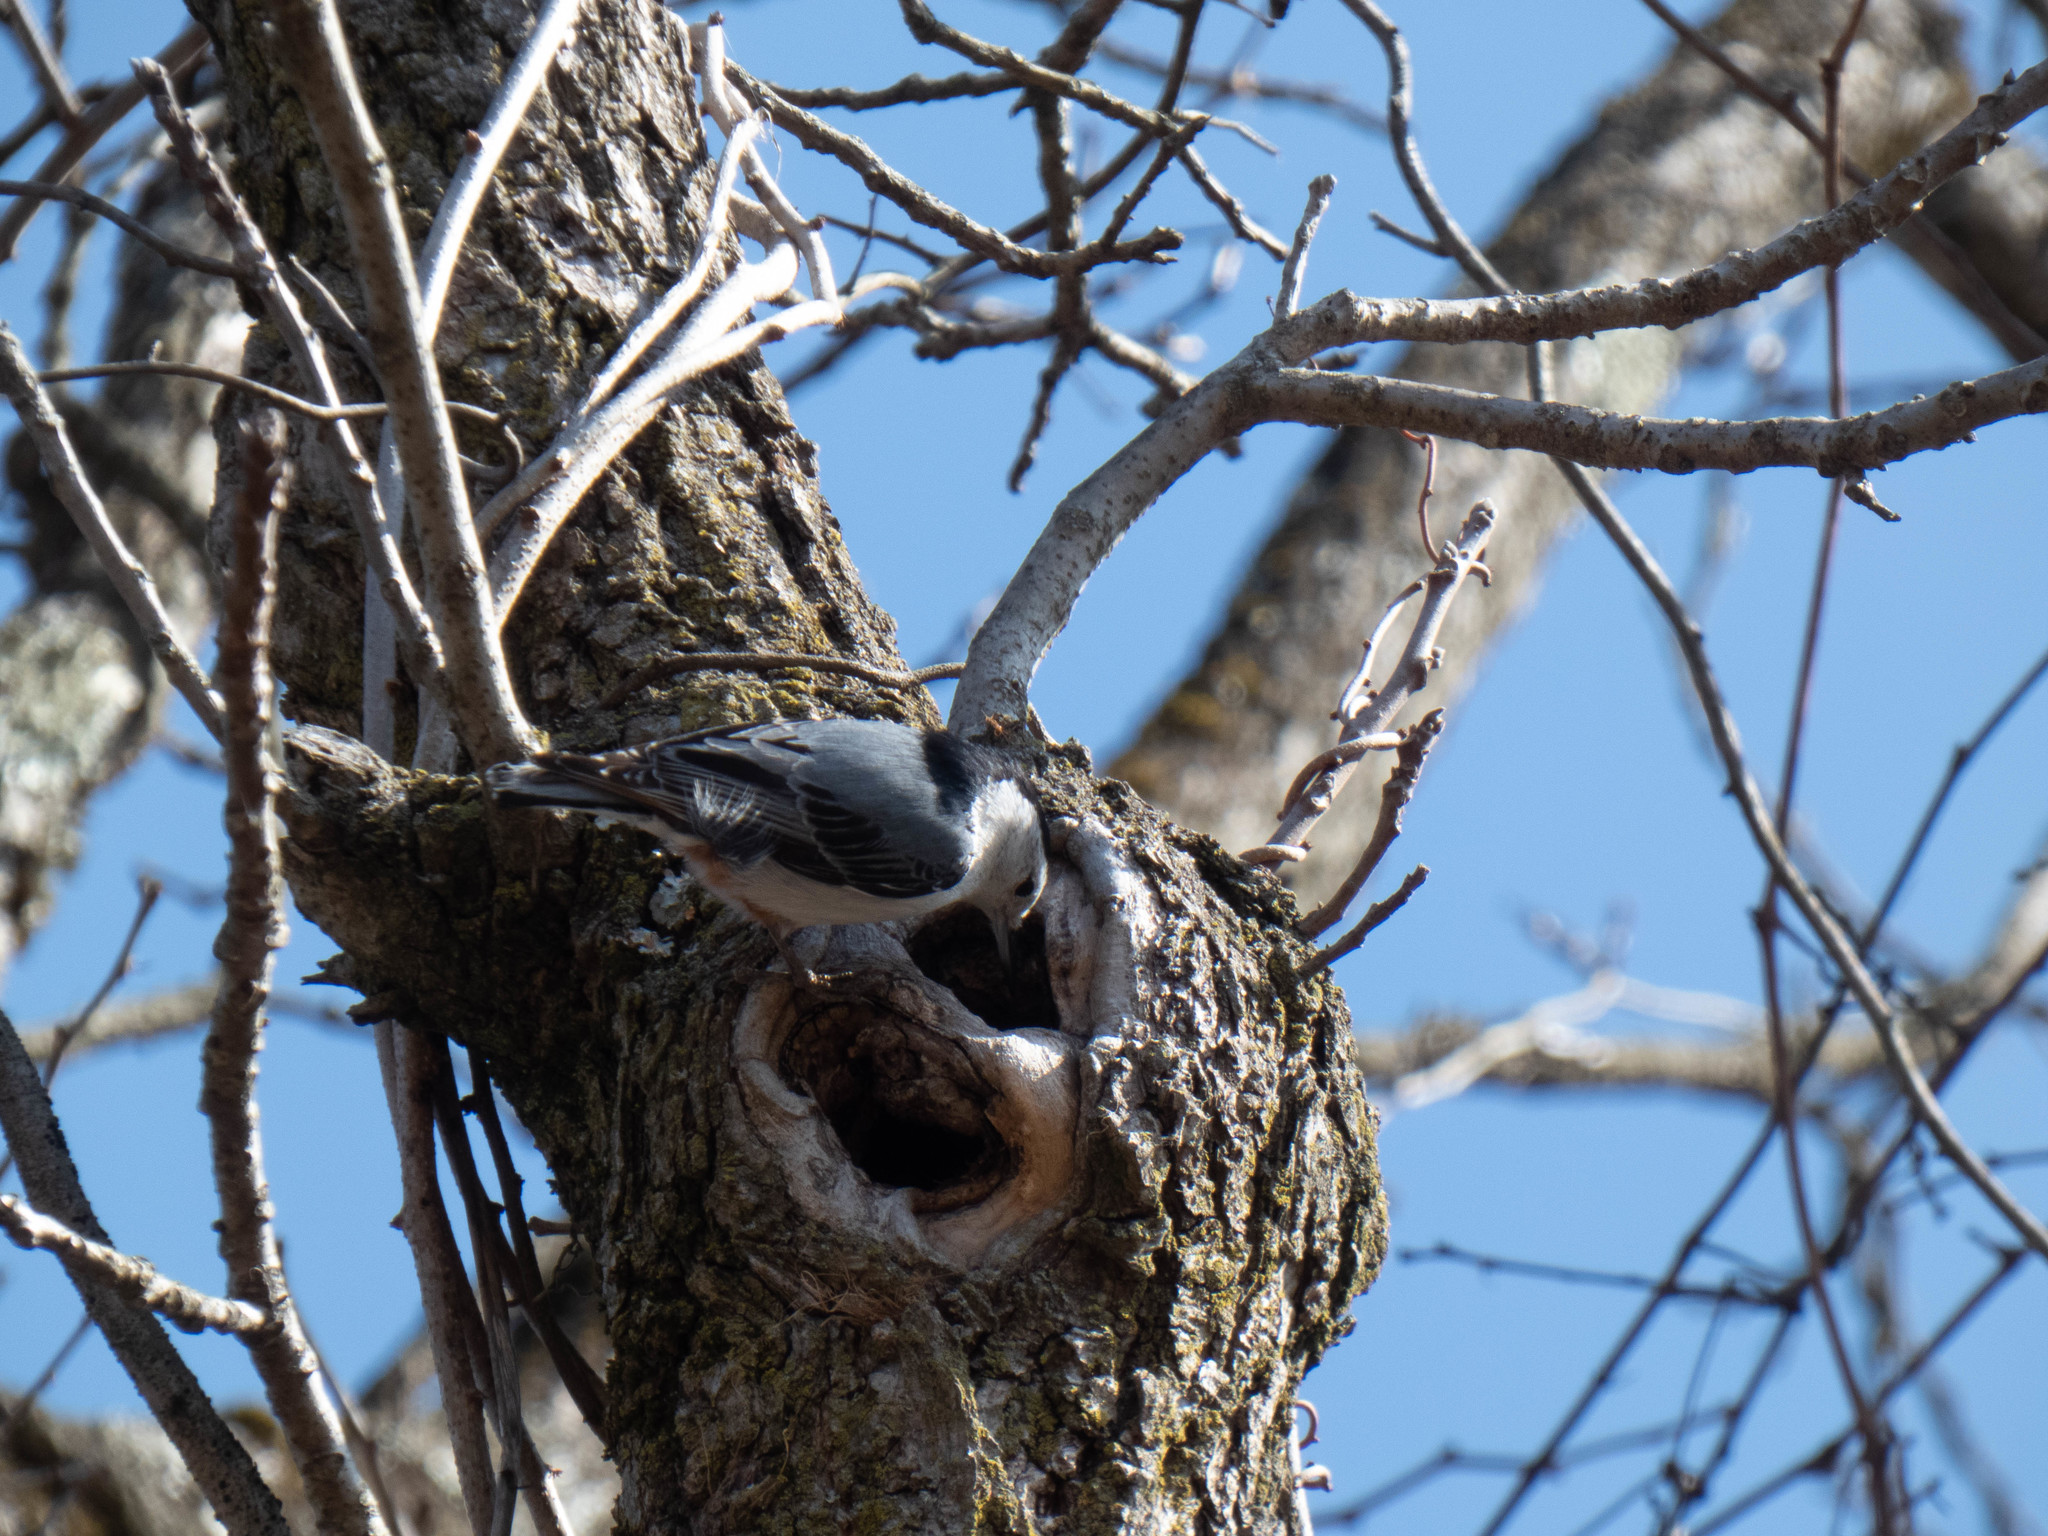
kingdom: Animalia
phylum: Chordata
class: Aves
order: Passeriformes
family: Sittidae
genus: Sitta
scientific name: Sitta carolinensis
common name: White-breasted nuthatch
